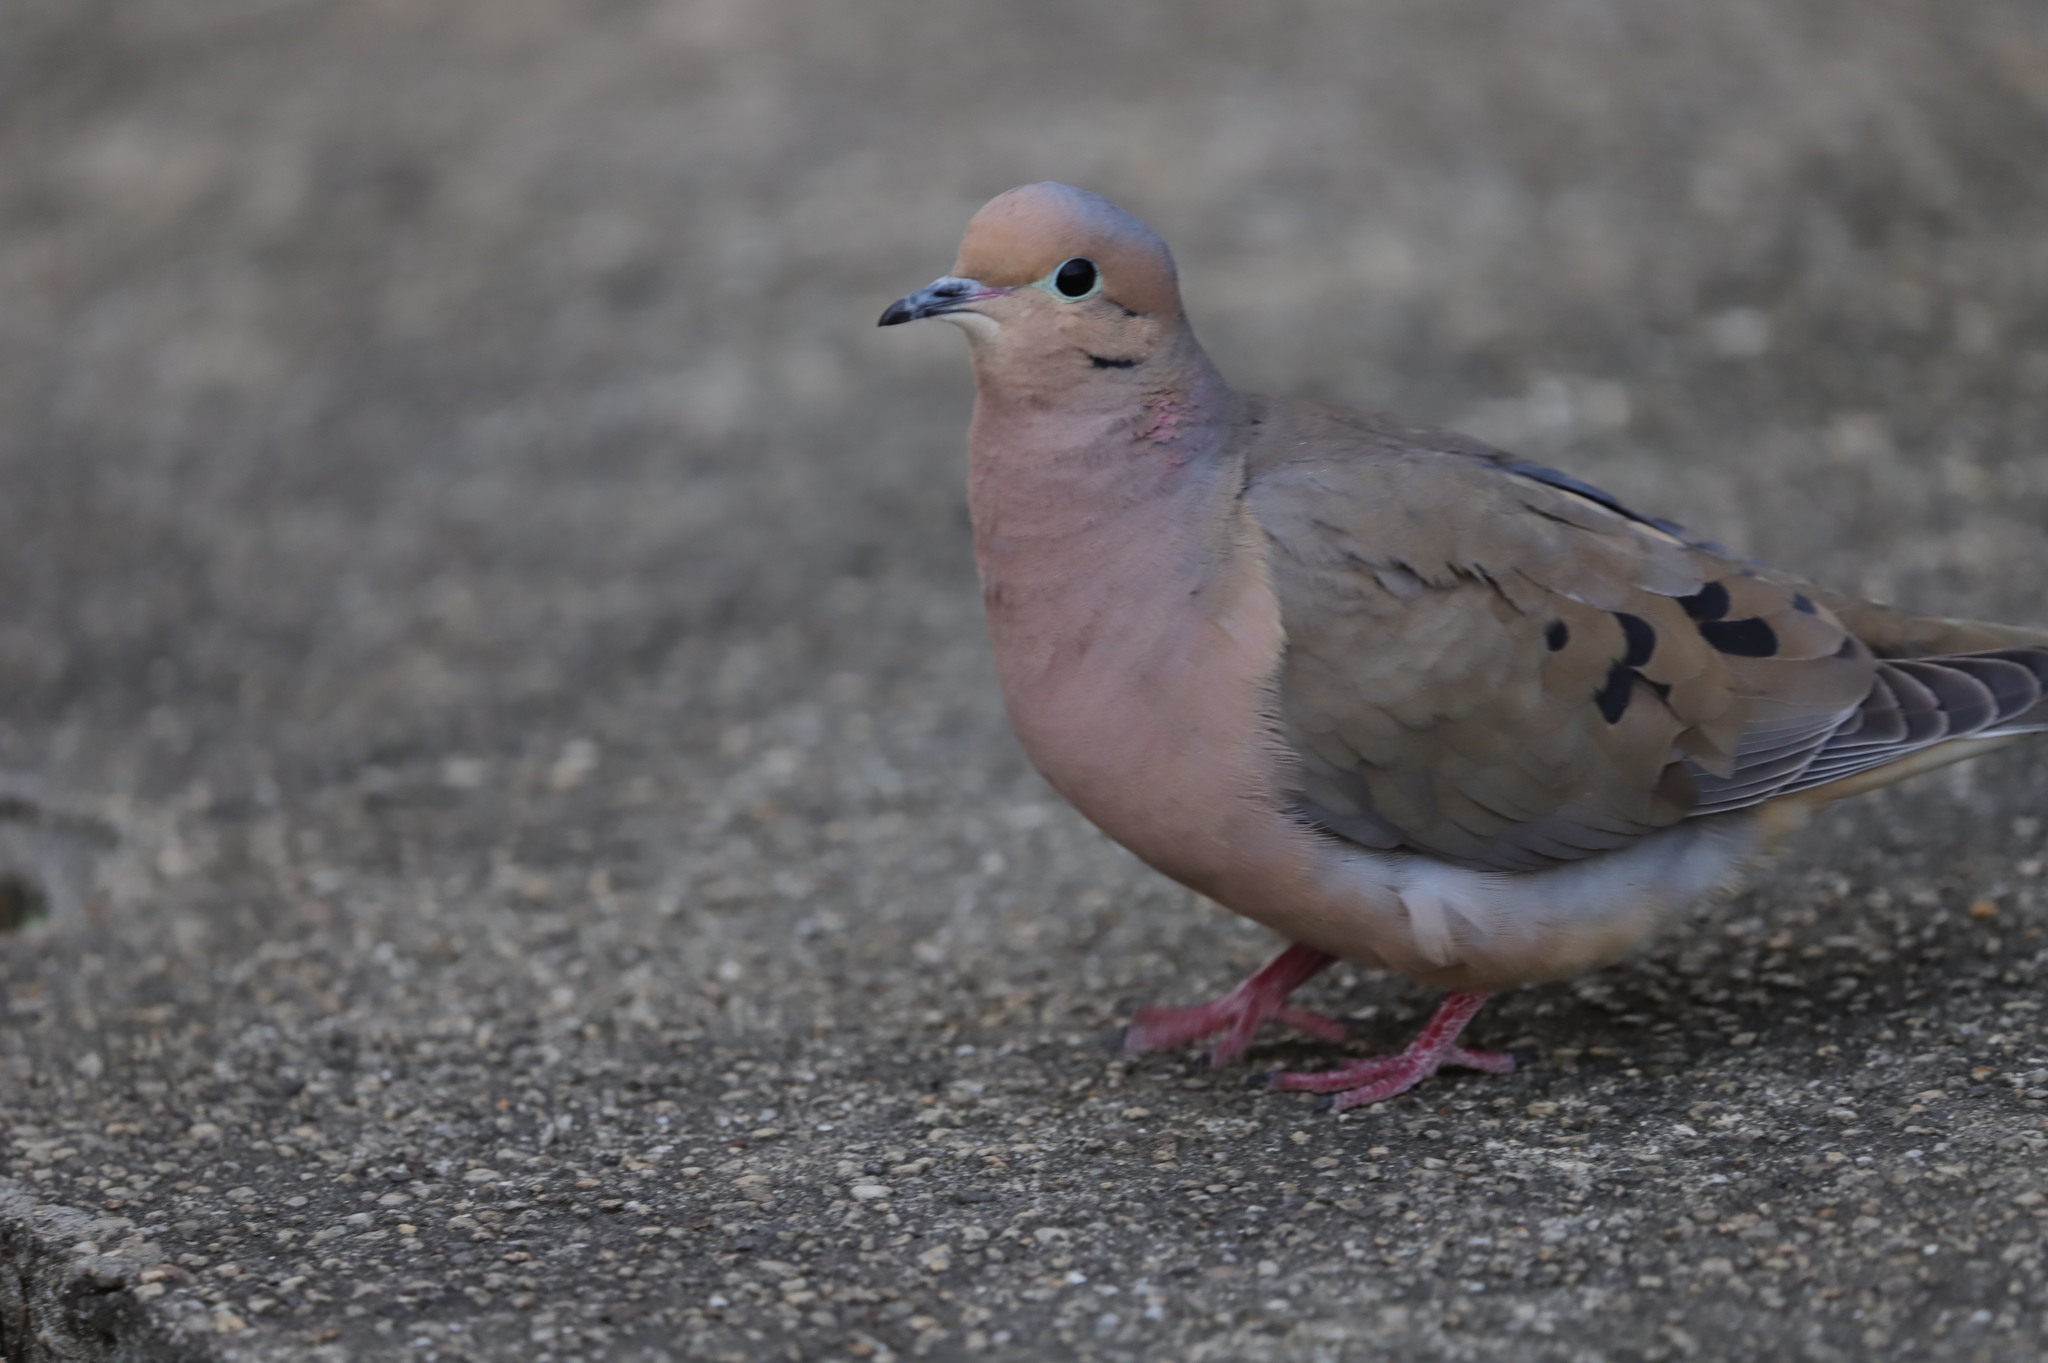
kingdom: Animalia
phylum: Chordata
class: Aves
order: Columbiformes
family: Columbidae
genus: Zenaida
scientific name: Zenaida macroura
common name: Mourning dove
